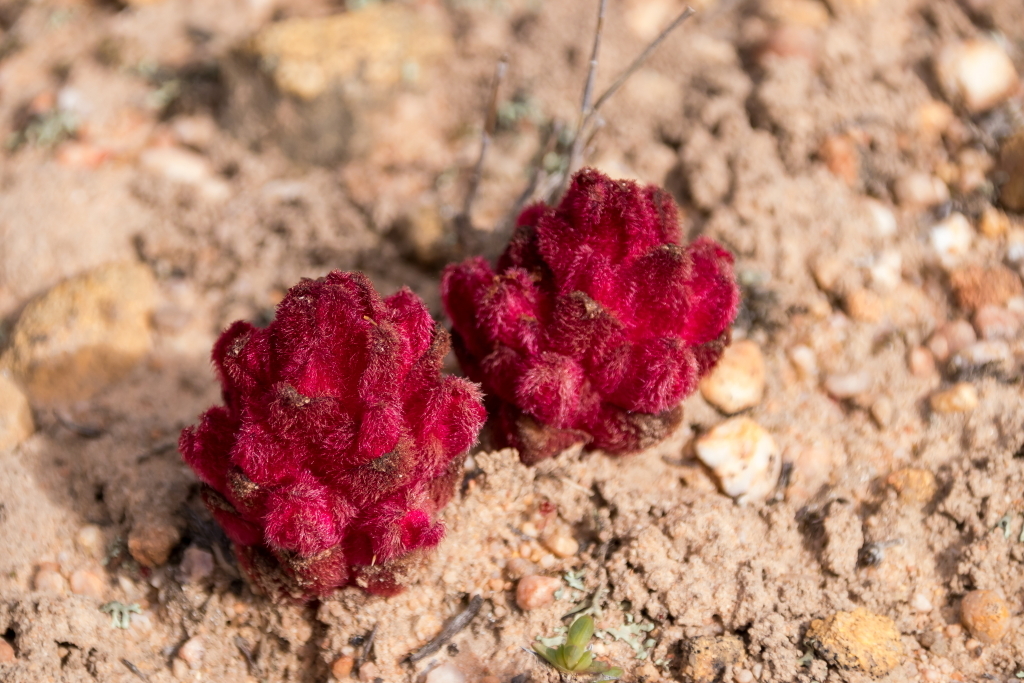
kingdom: Plantae
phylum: Tracheophyta
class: Magnoliopsida
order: Lamiales
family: Orobanchaceae
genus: Hyobanche
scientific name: Hyobanche sanguinea
